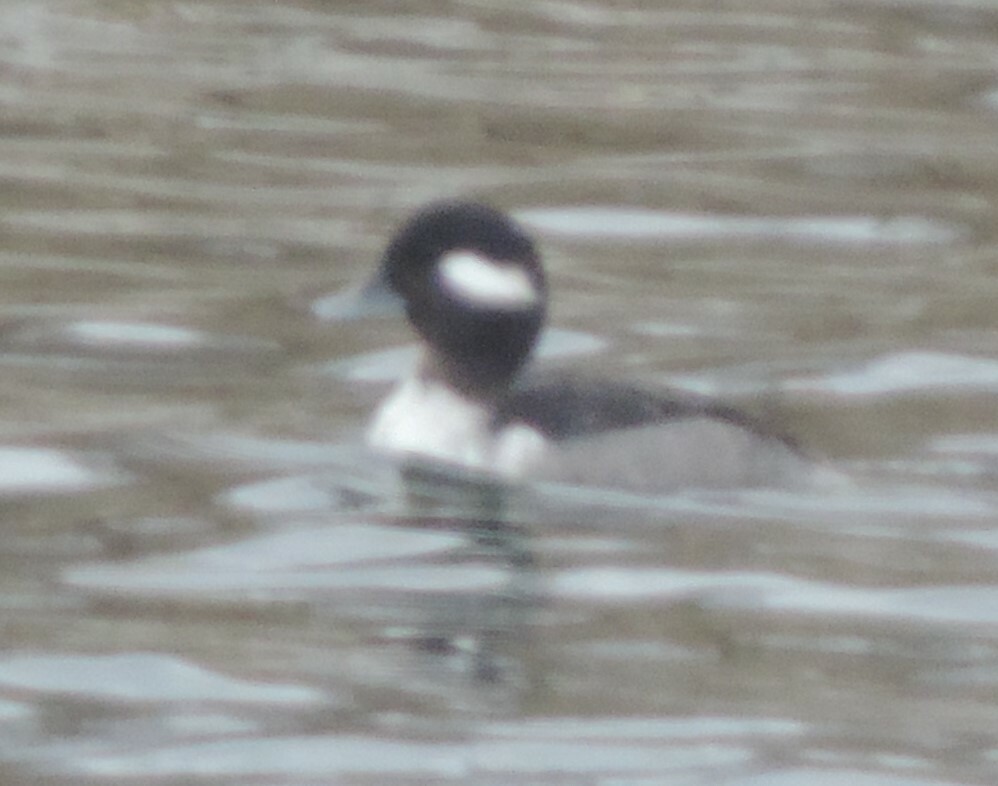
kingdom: Animalia
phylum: Chordata
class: Aves
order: Anseriformes
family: Anatidae
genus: Bucephala
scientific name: Bucephala albeola
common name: Bufflehead
